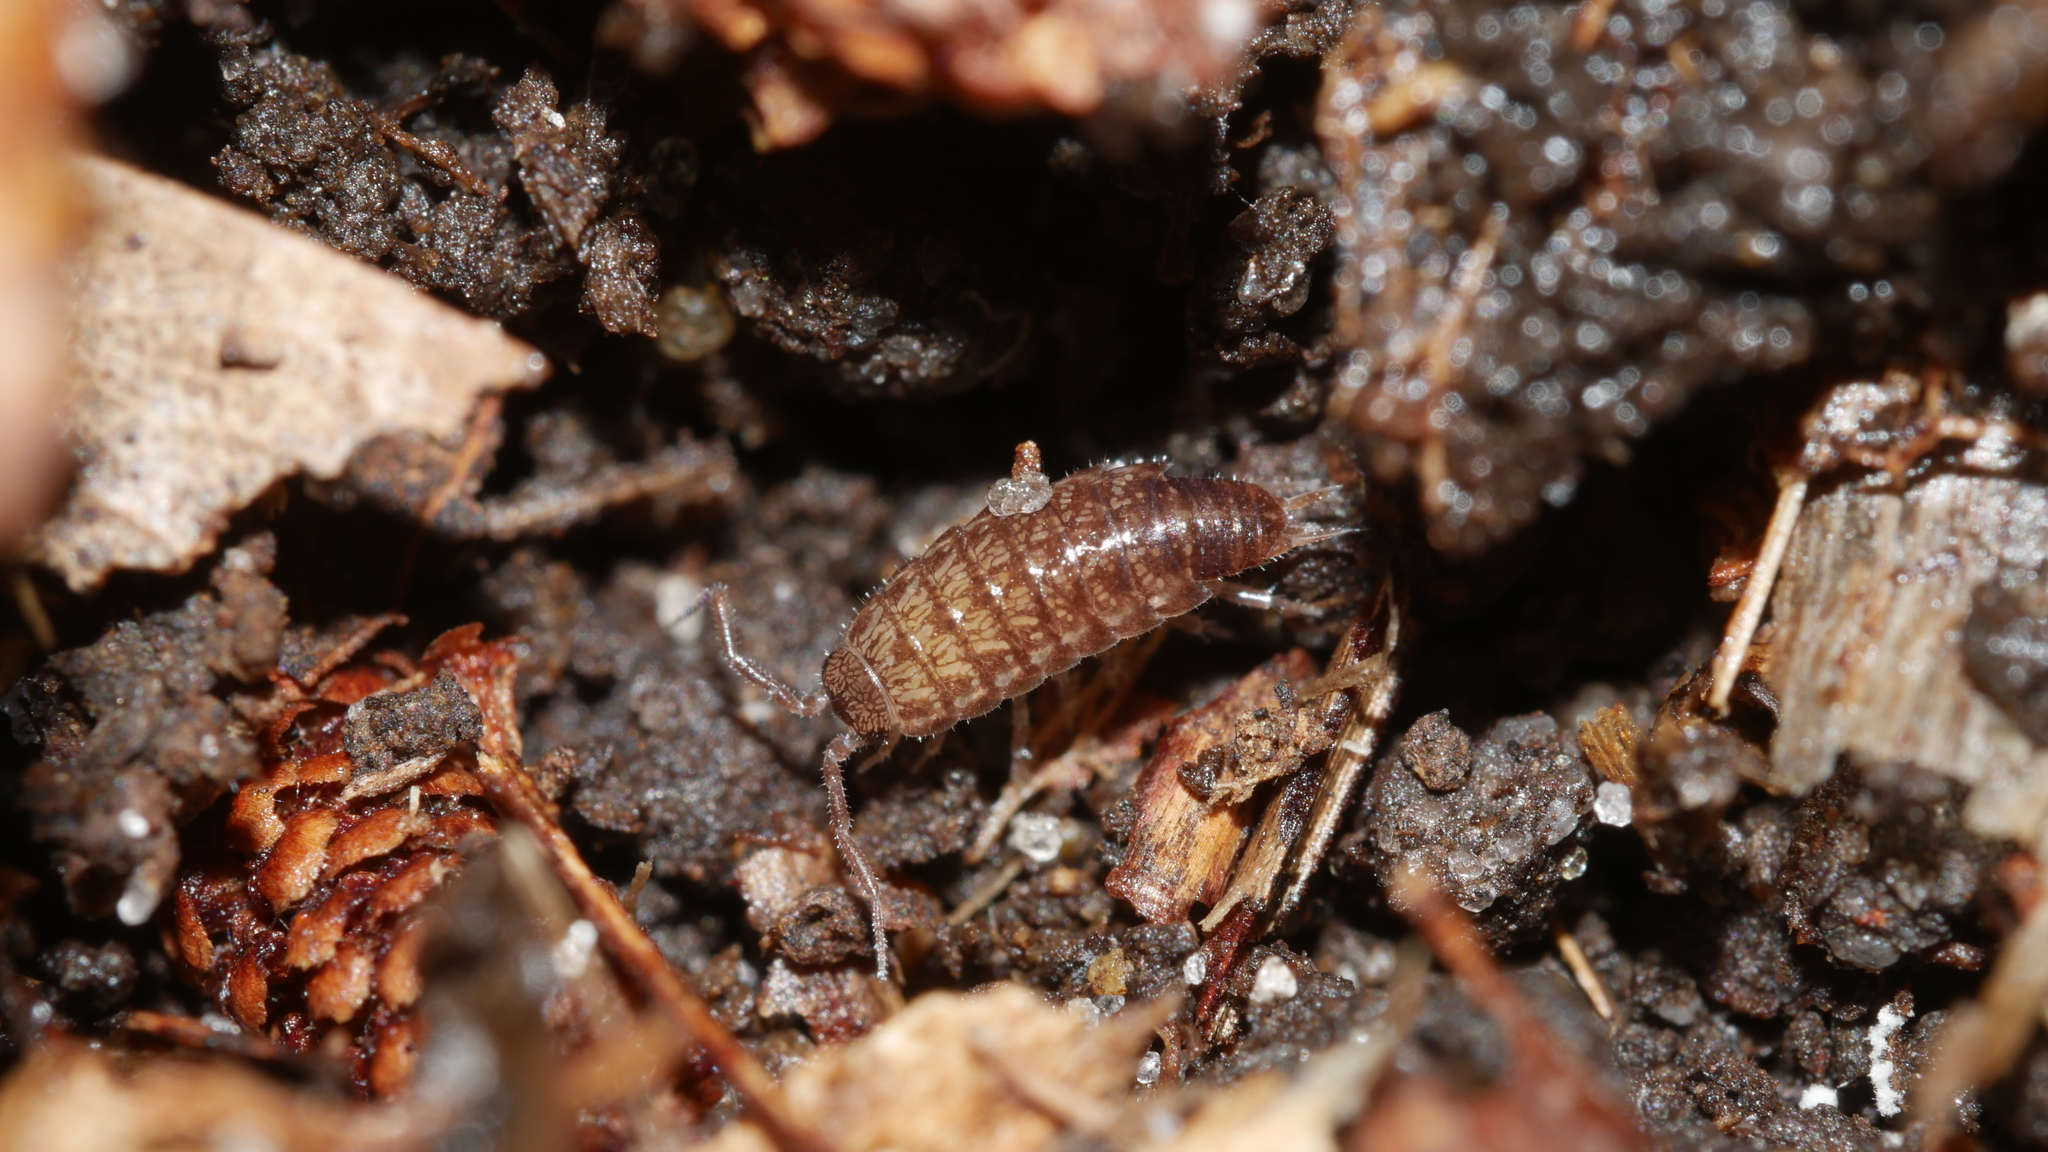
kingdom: Animalia
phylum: Arthropoda
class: Malacostraca
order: Isopoda
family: Philosciidae
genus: Chaetophiloscia
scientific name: Chaetophiloscia sicula
